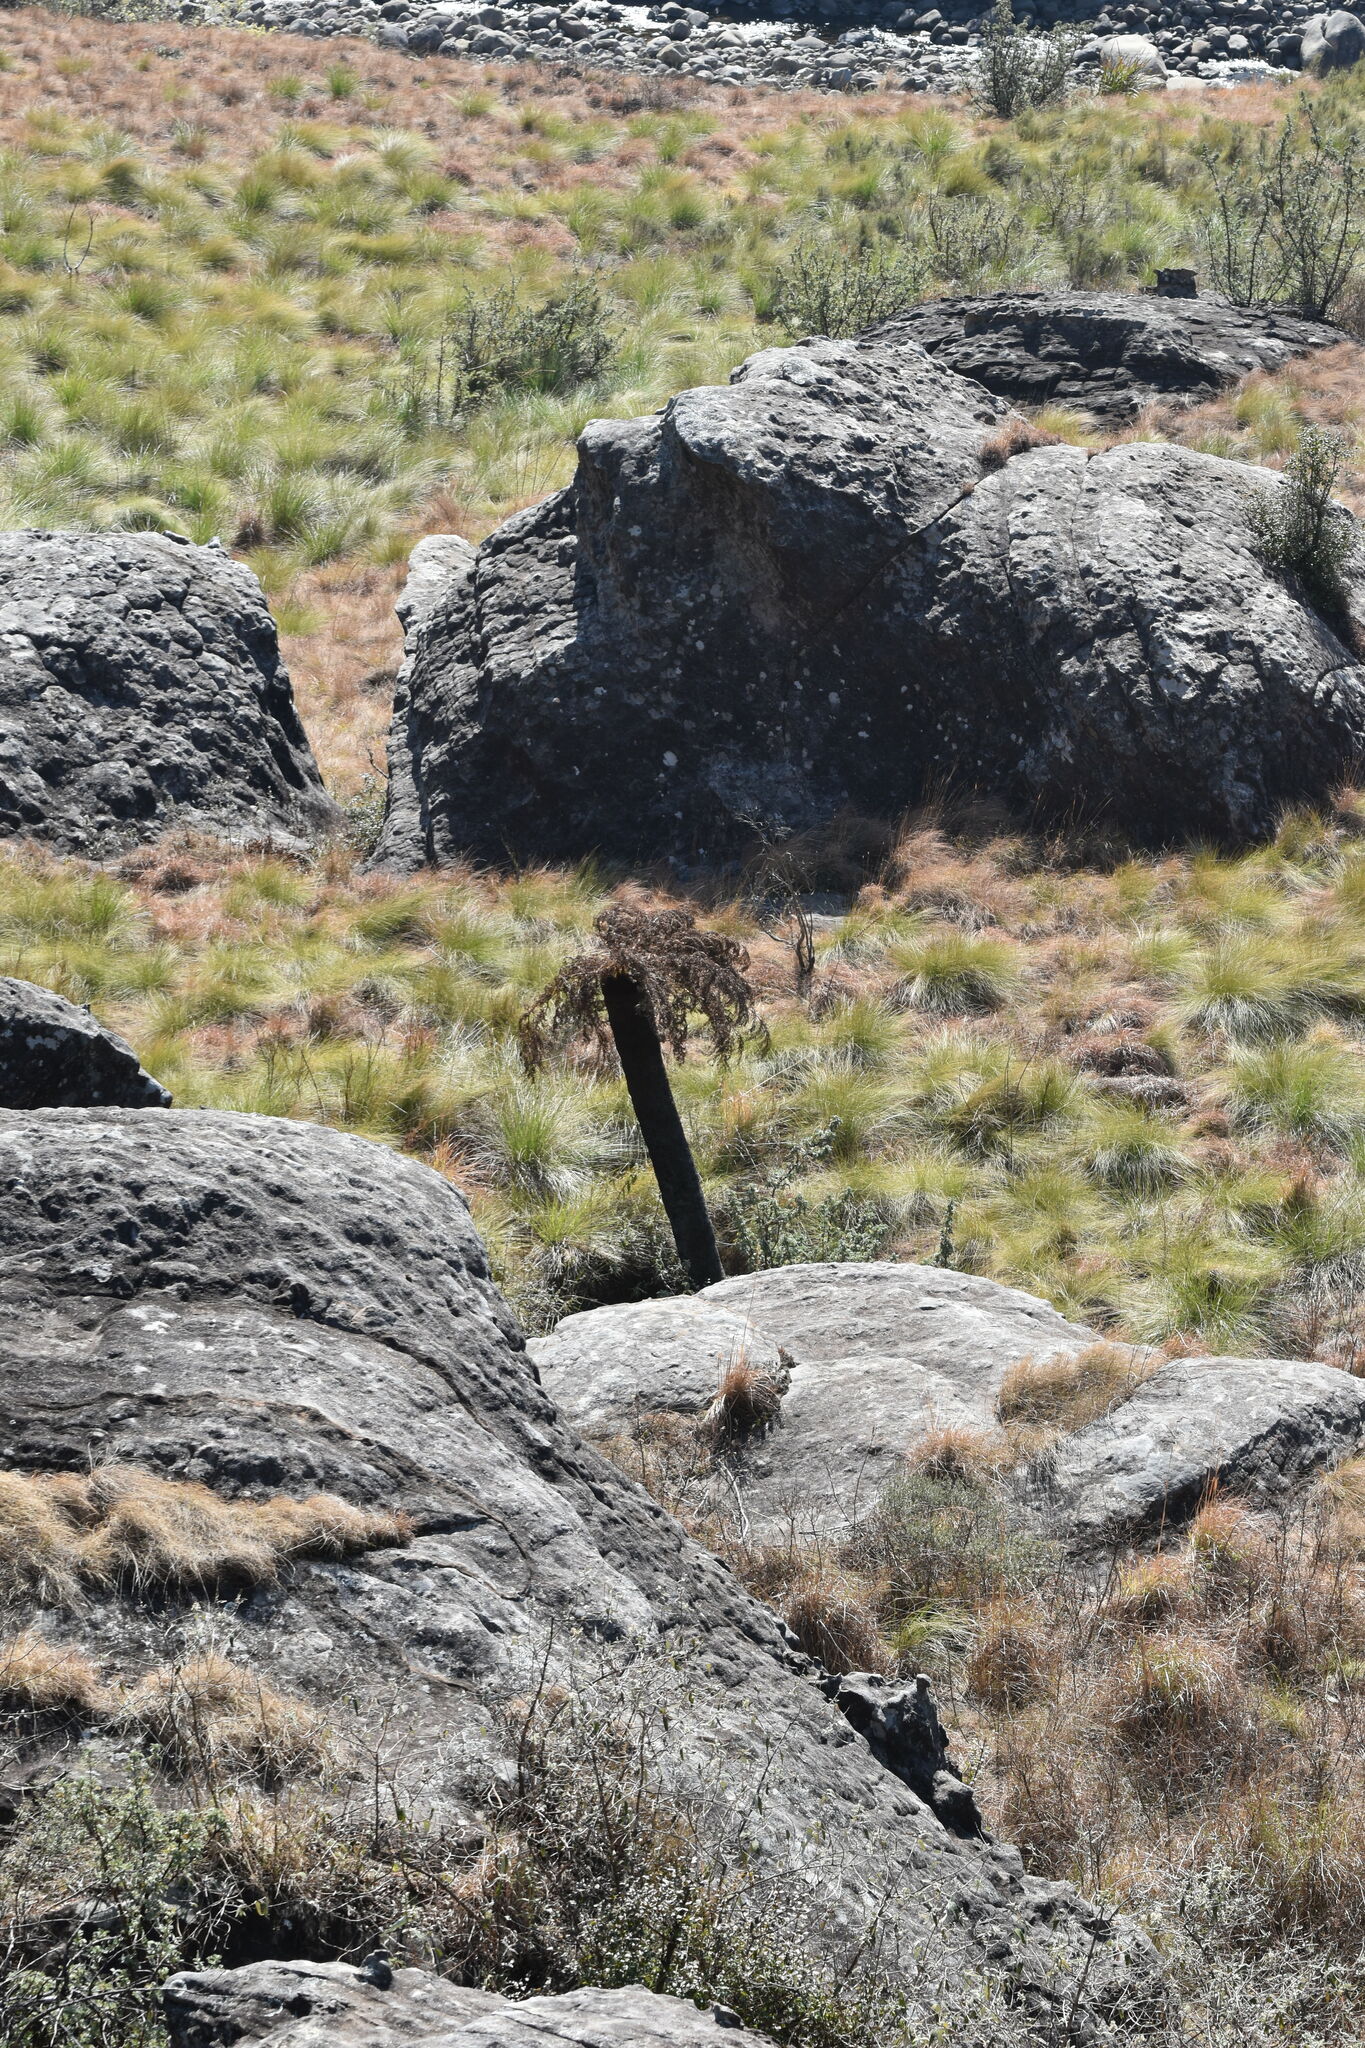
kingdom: Plantae
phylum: Tracheophyta
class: Polypodiopsida
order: Cyatheales
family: Cyatheaceae
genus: Alsophila
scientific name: Alsophila dregei
